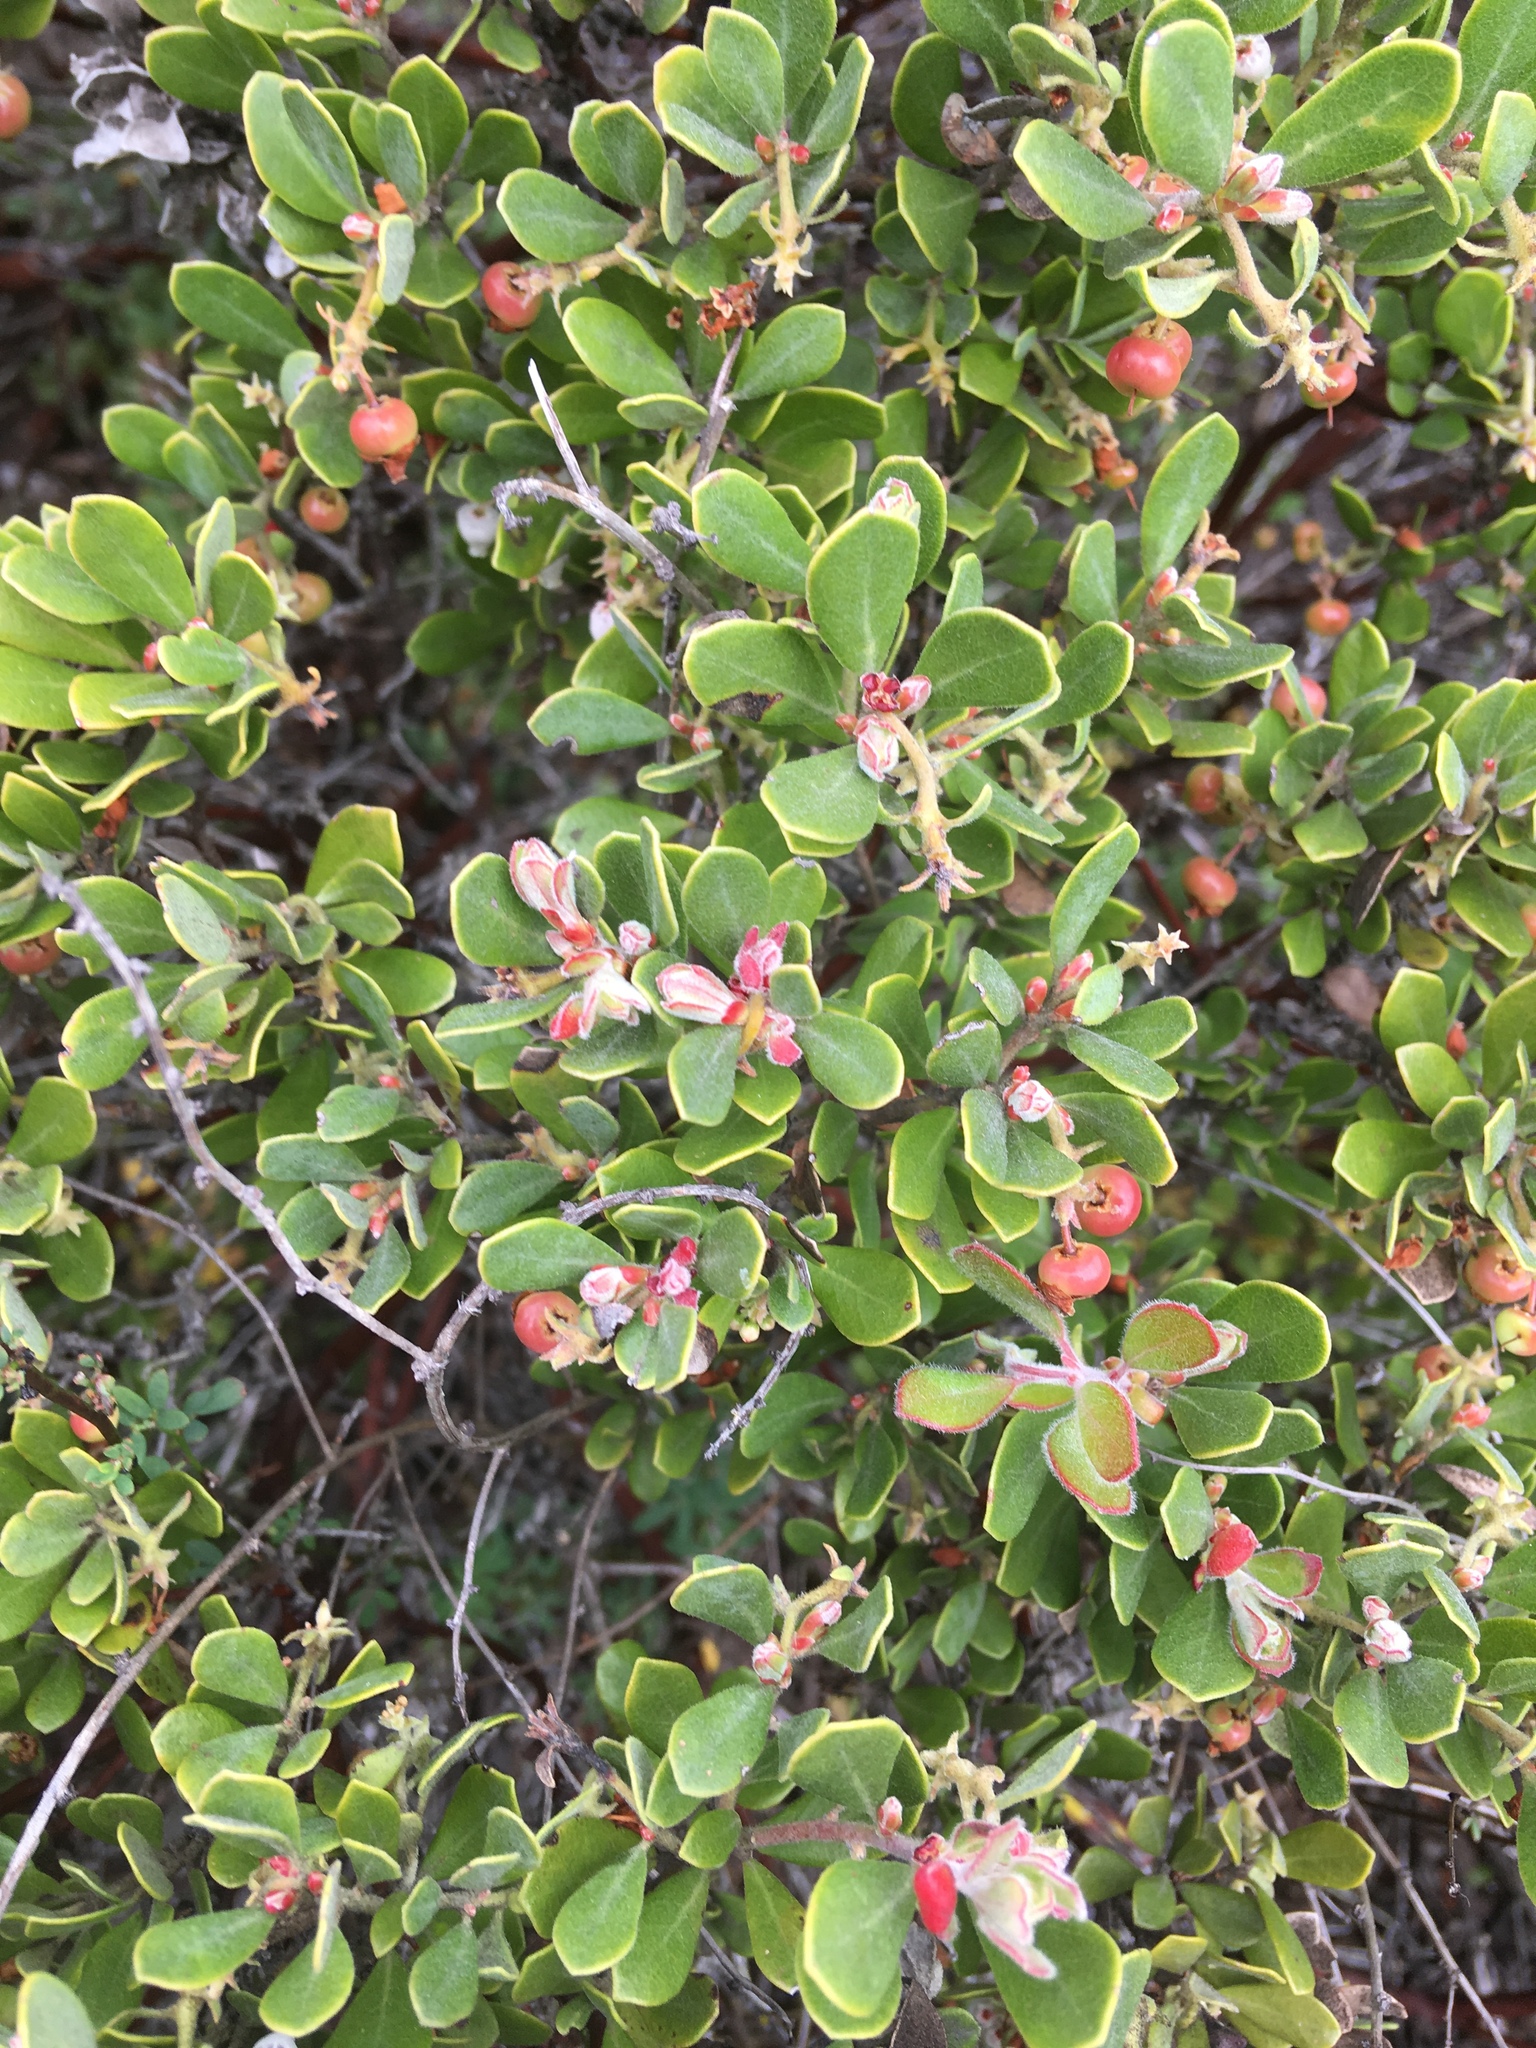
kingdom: Plantae
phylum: Tracheophyta
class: Magnoliopsida
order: Ericales
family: Ericaceae
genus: Arctostaphylos
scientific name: Arctostaphylos pumila
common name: Sandmat manzanita
